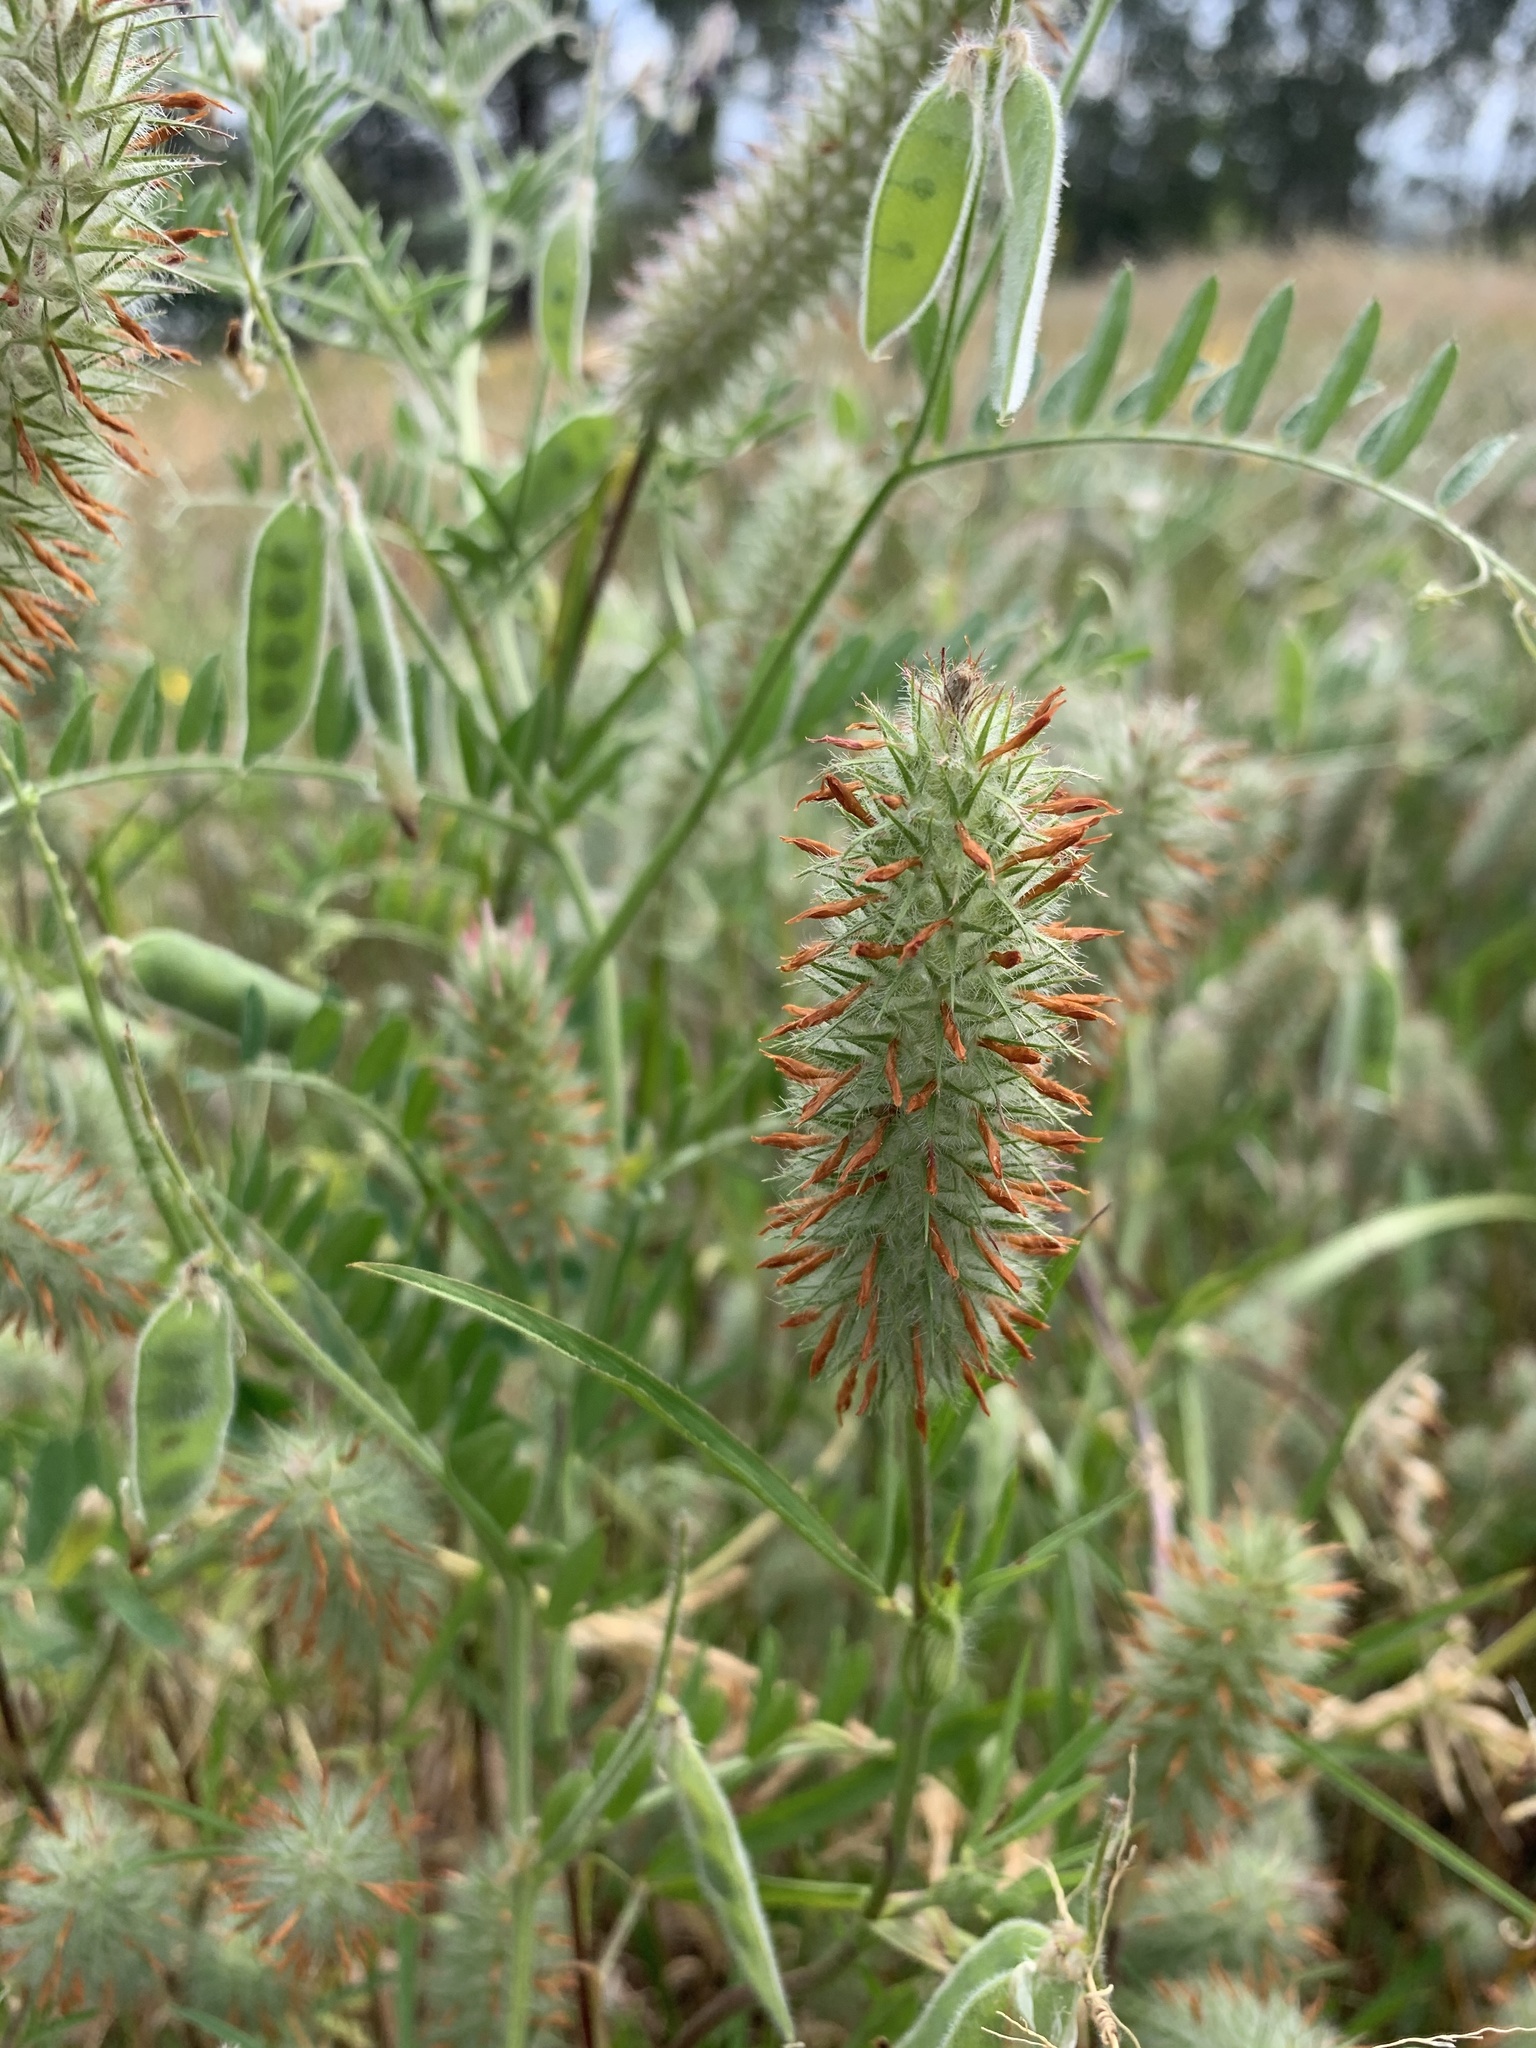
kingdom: Plantae
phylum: Tracheophyta
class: Magnoliopsida
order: Fabales
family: Fabaceae
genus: Trifolium
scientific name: Trifolium angustifolium
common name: Narrow clover
